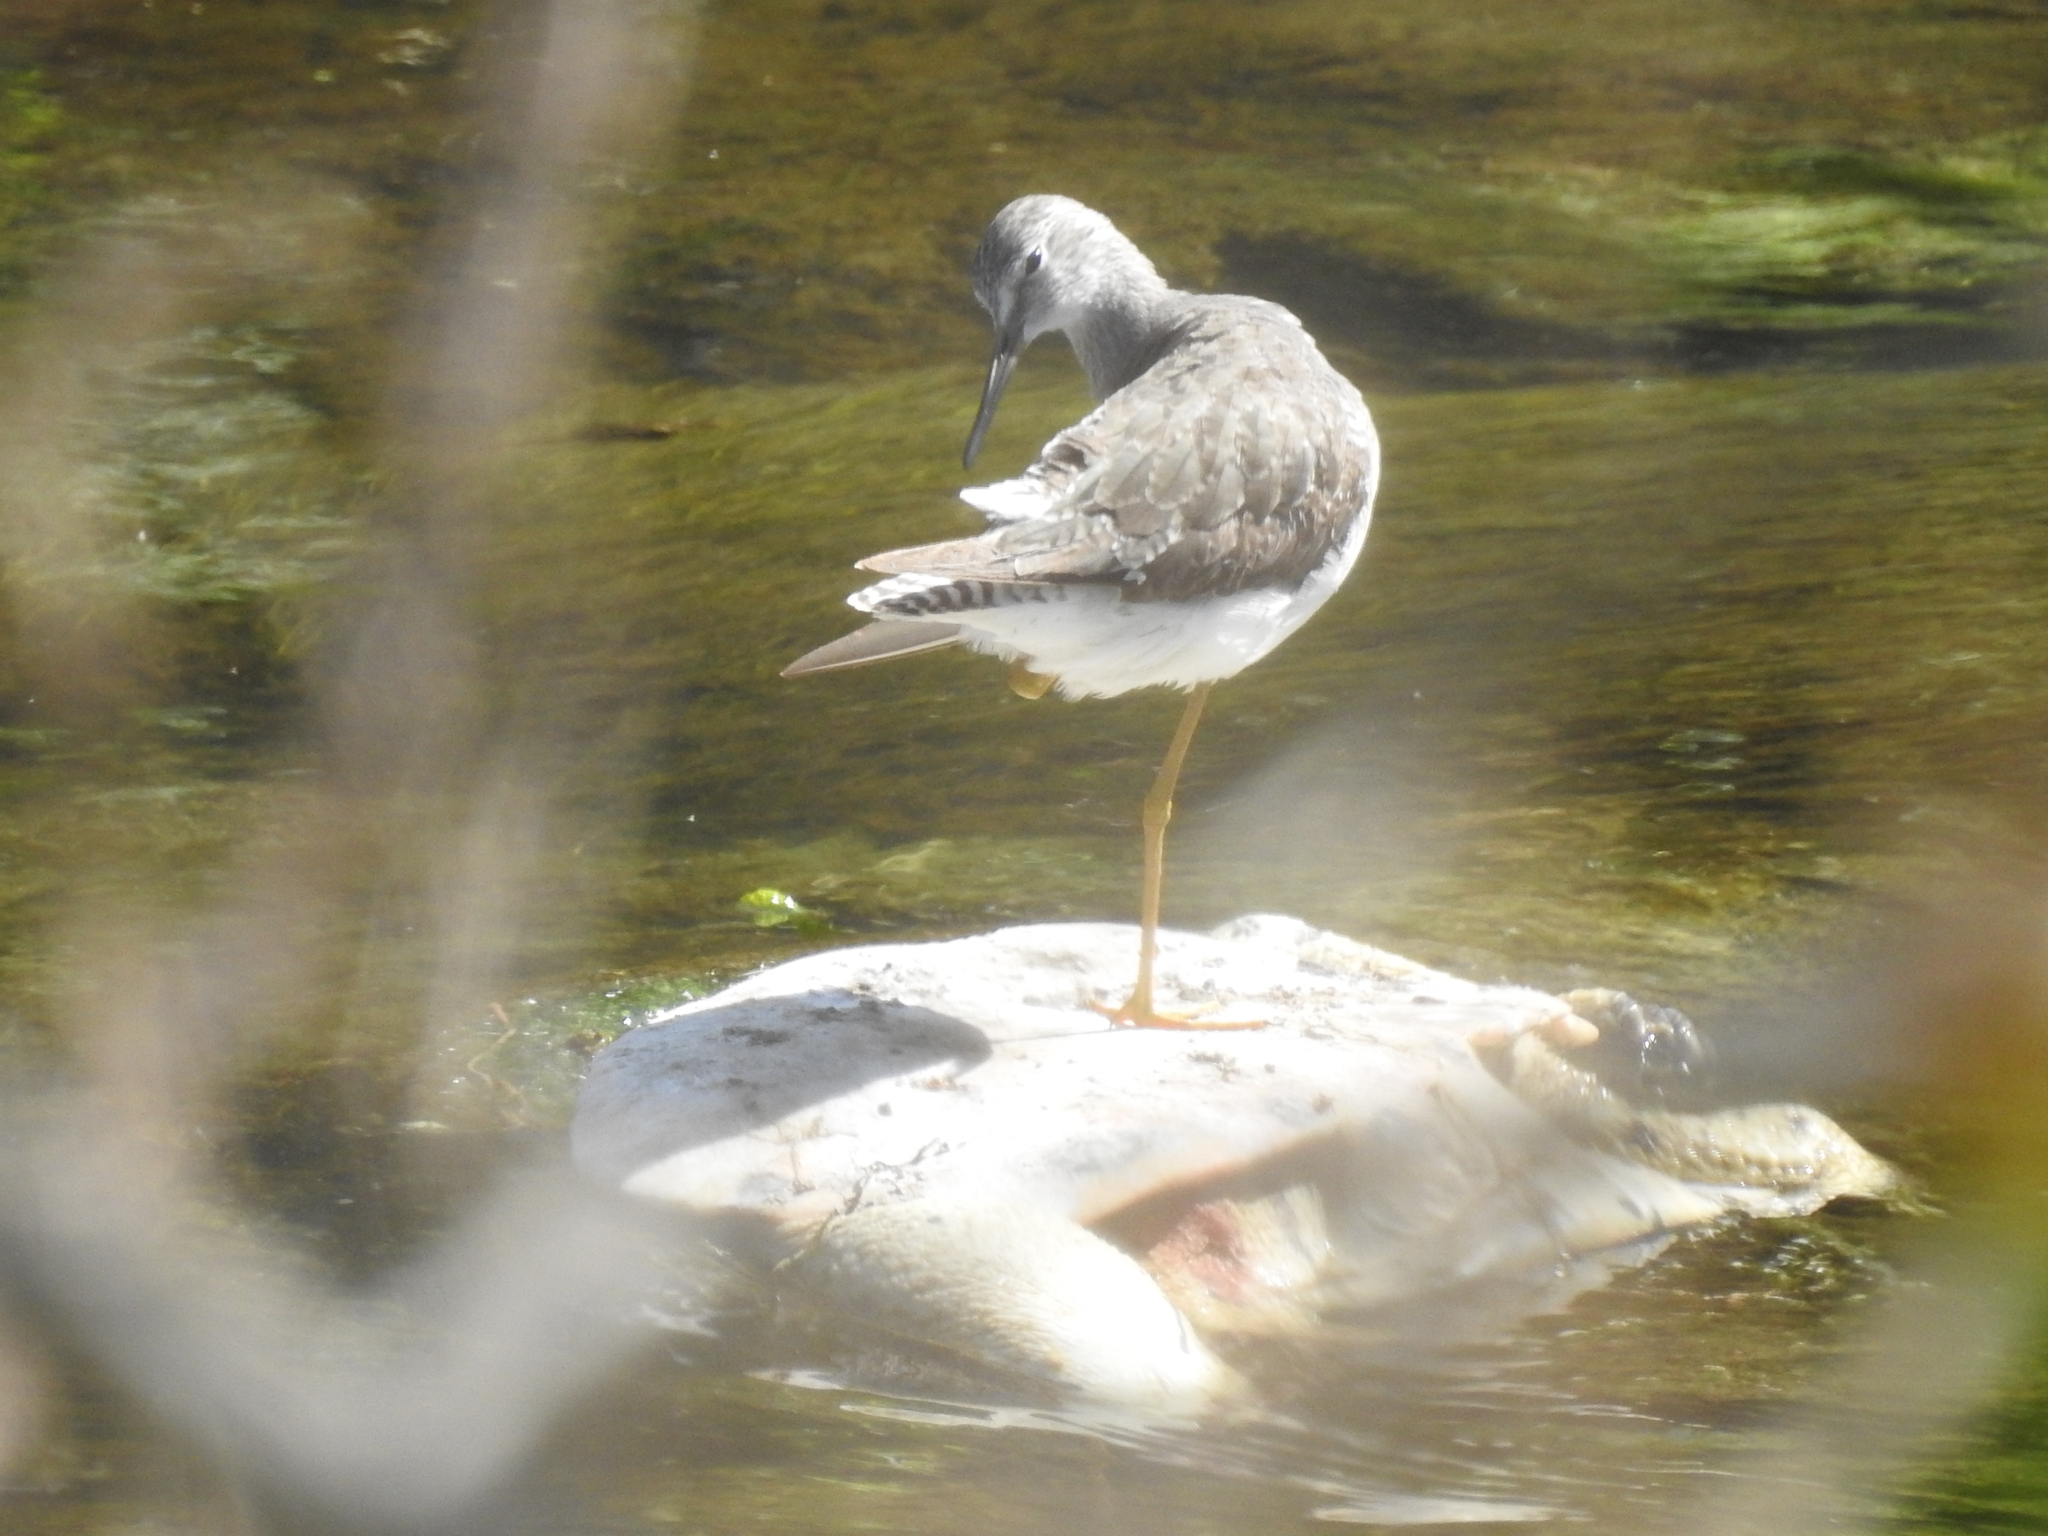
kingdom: Animalia
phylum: Chordata
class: Aves
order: Charadriiformes
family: Scolopacidae
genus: Tringa
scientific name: Tringa flavipes
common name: Lesser yellowlegs
